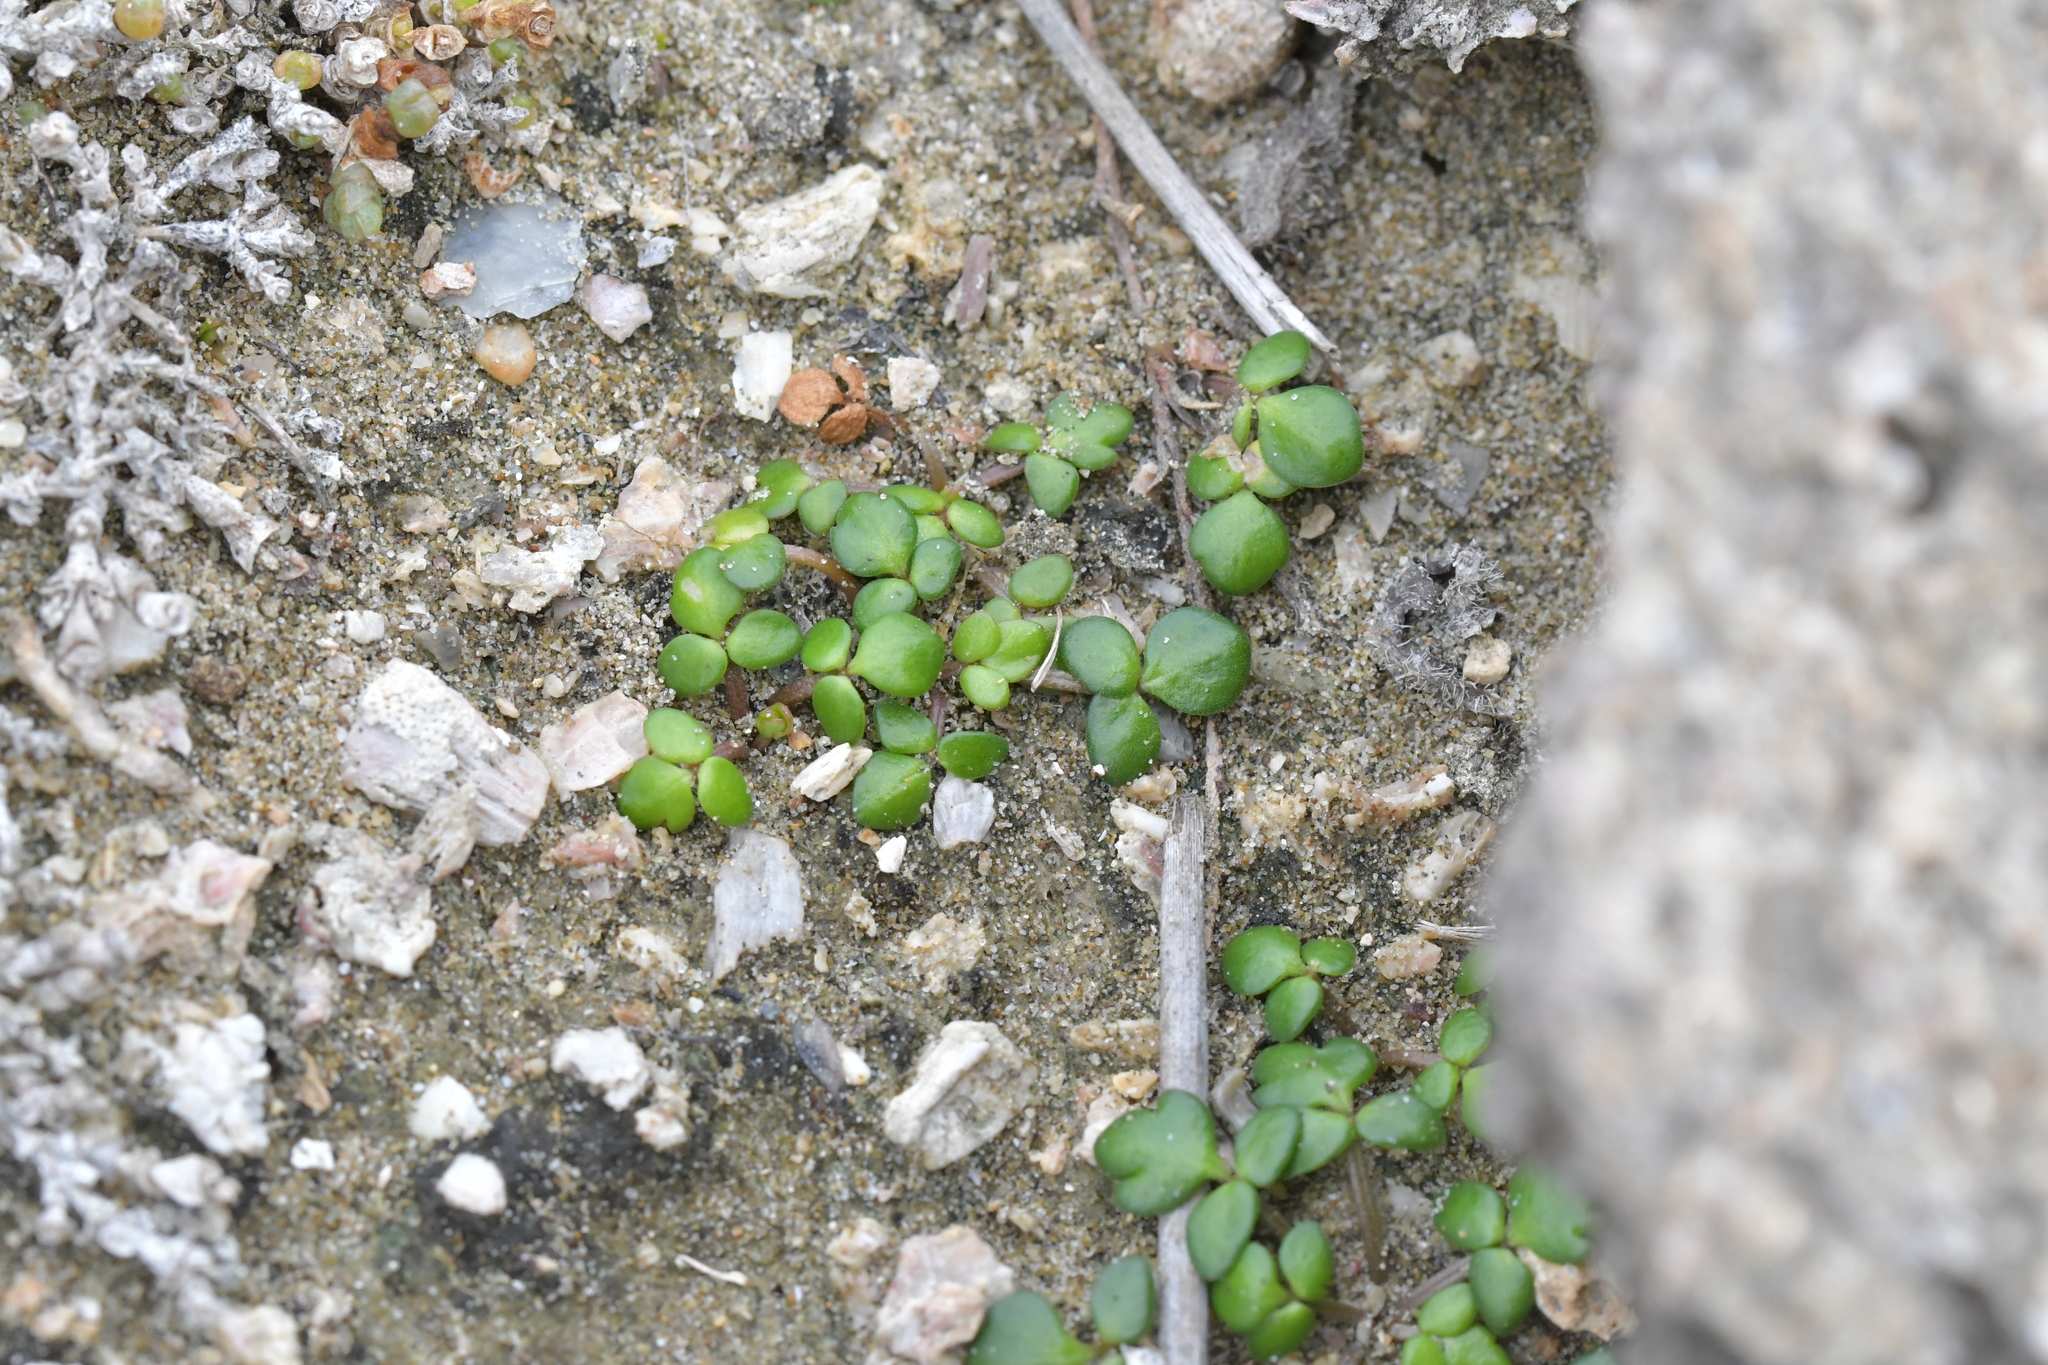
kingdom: Plantae
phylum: Tracheophyta
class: Magnoliopsida
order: Ranunculales
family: Ranunculaceae
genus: Ranunculus
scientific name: Ranunculus acaulis
